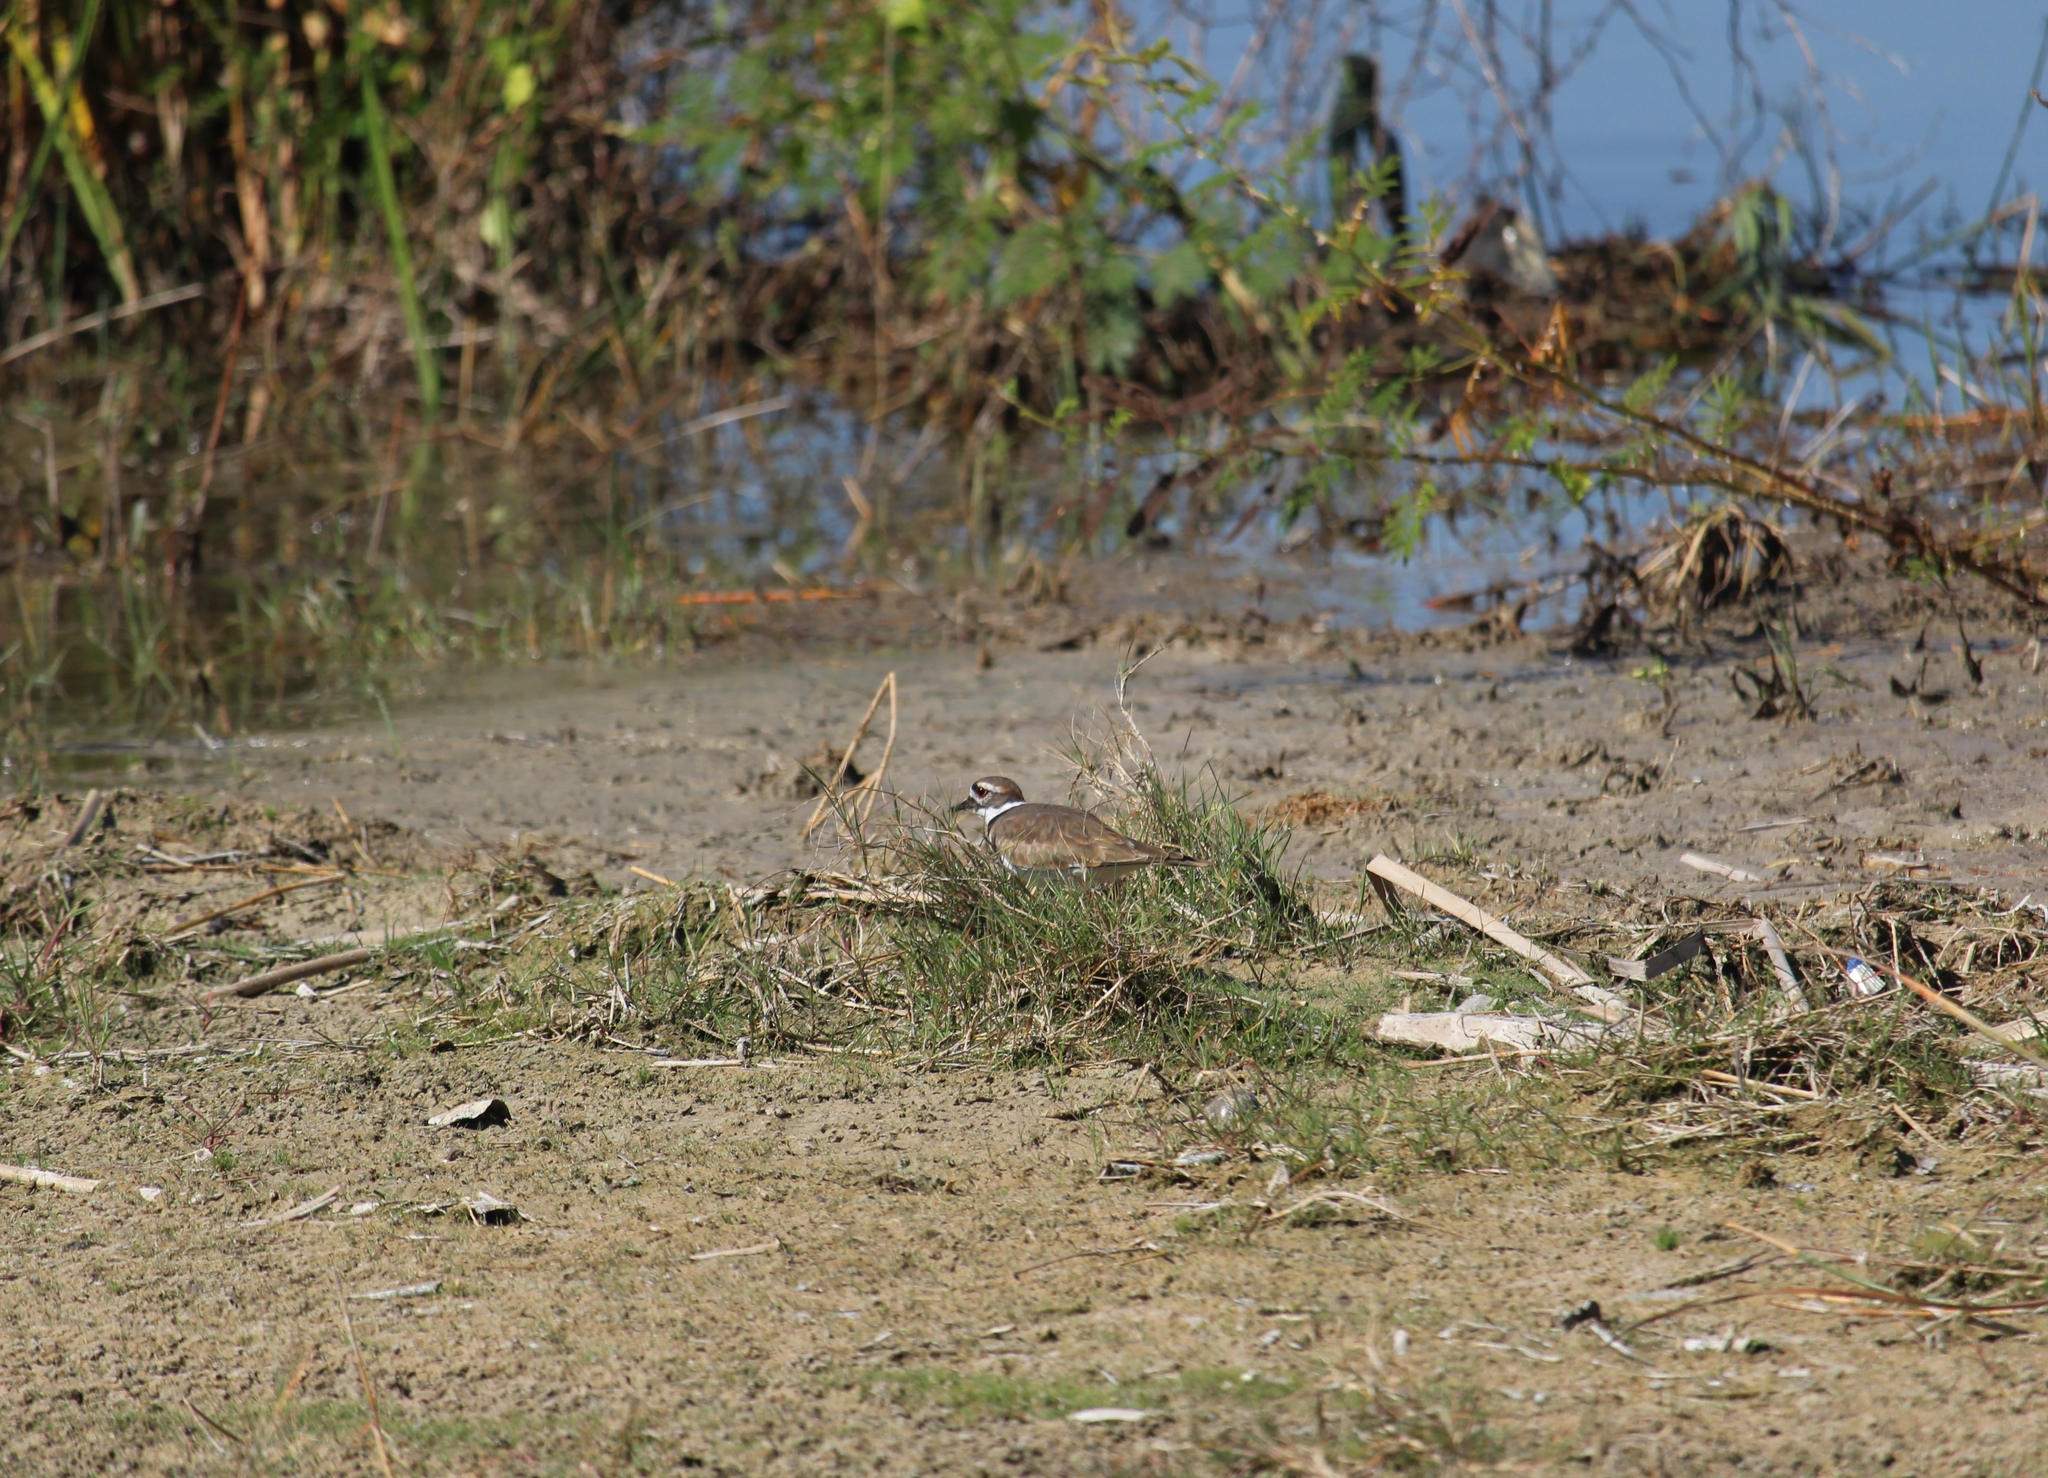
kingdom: Animalia
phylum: Chordata
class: Aves
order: Charadriiformes
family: Charadriidae
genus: Charadrius
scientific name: Charadrius vociferus
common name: Killdeer
